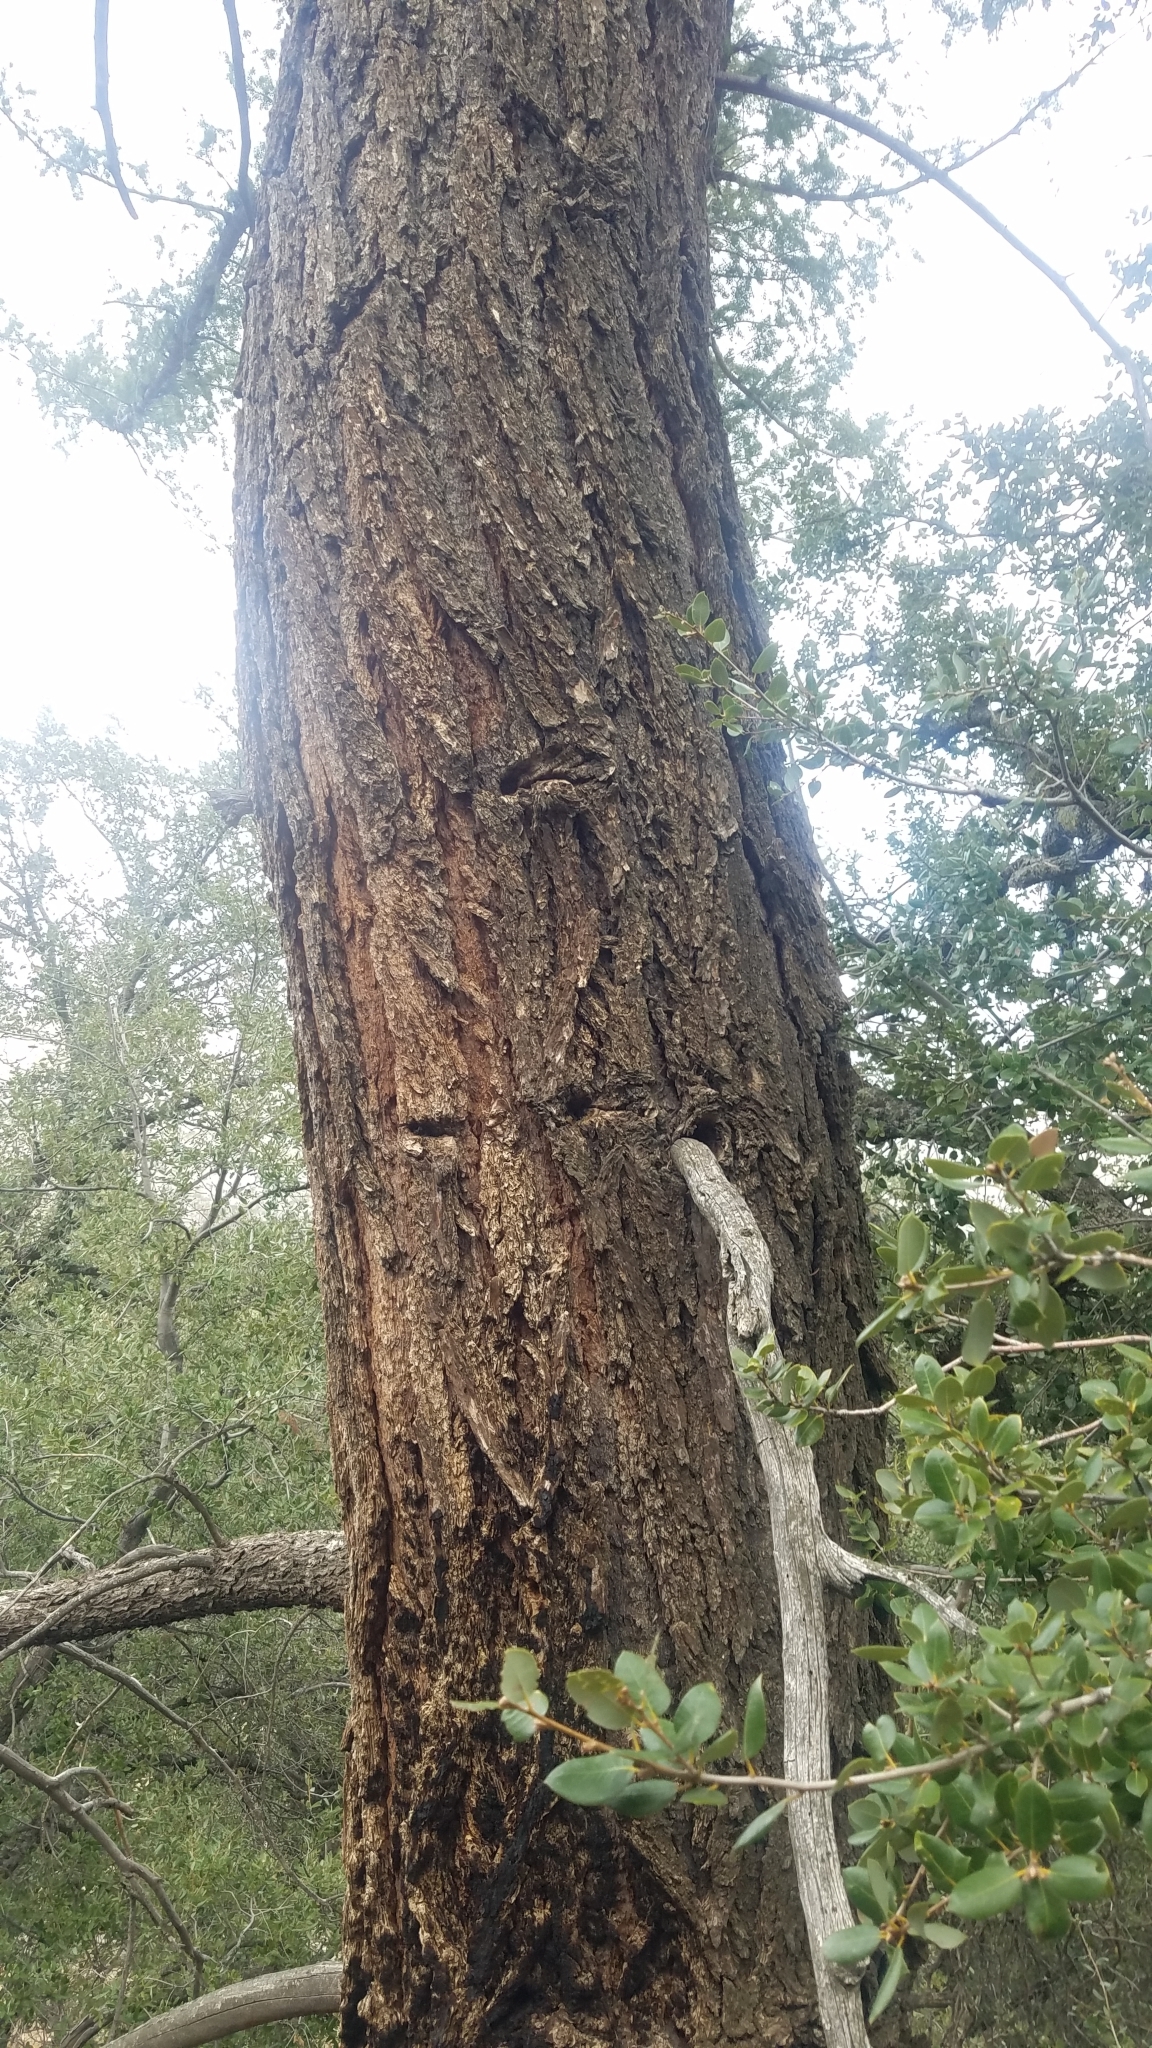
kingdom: Plantae
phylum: Tracheophyta
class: Pinopsida
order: Pinales
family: Pinaceae
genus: Pseudotsuga
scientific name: Pseudotsuga macrocarpa
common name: Big-cone douglas-fir
